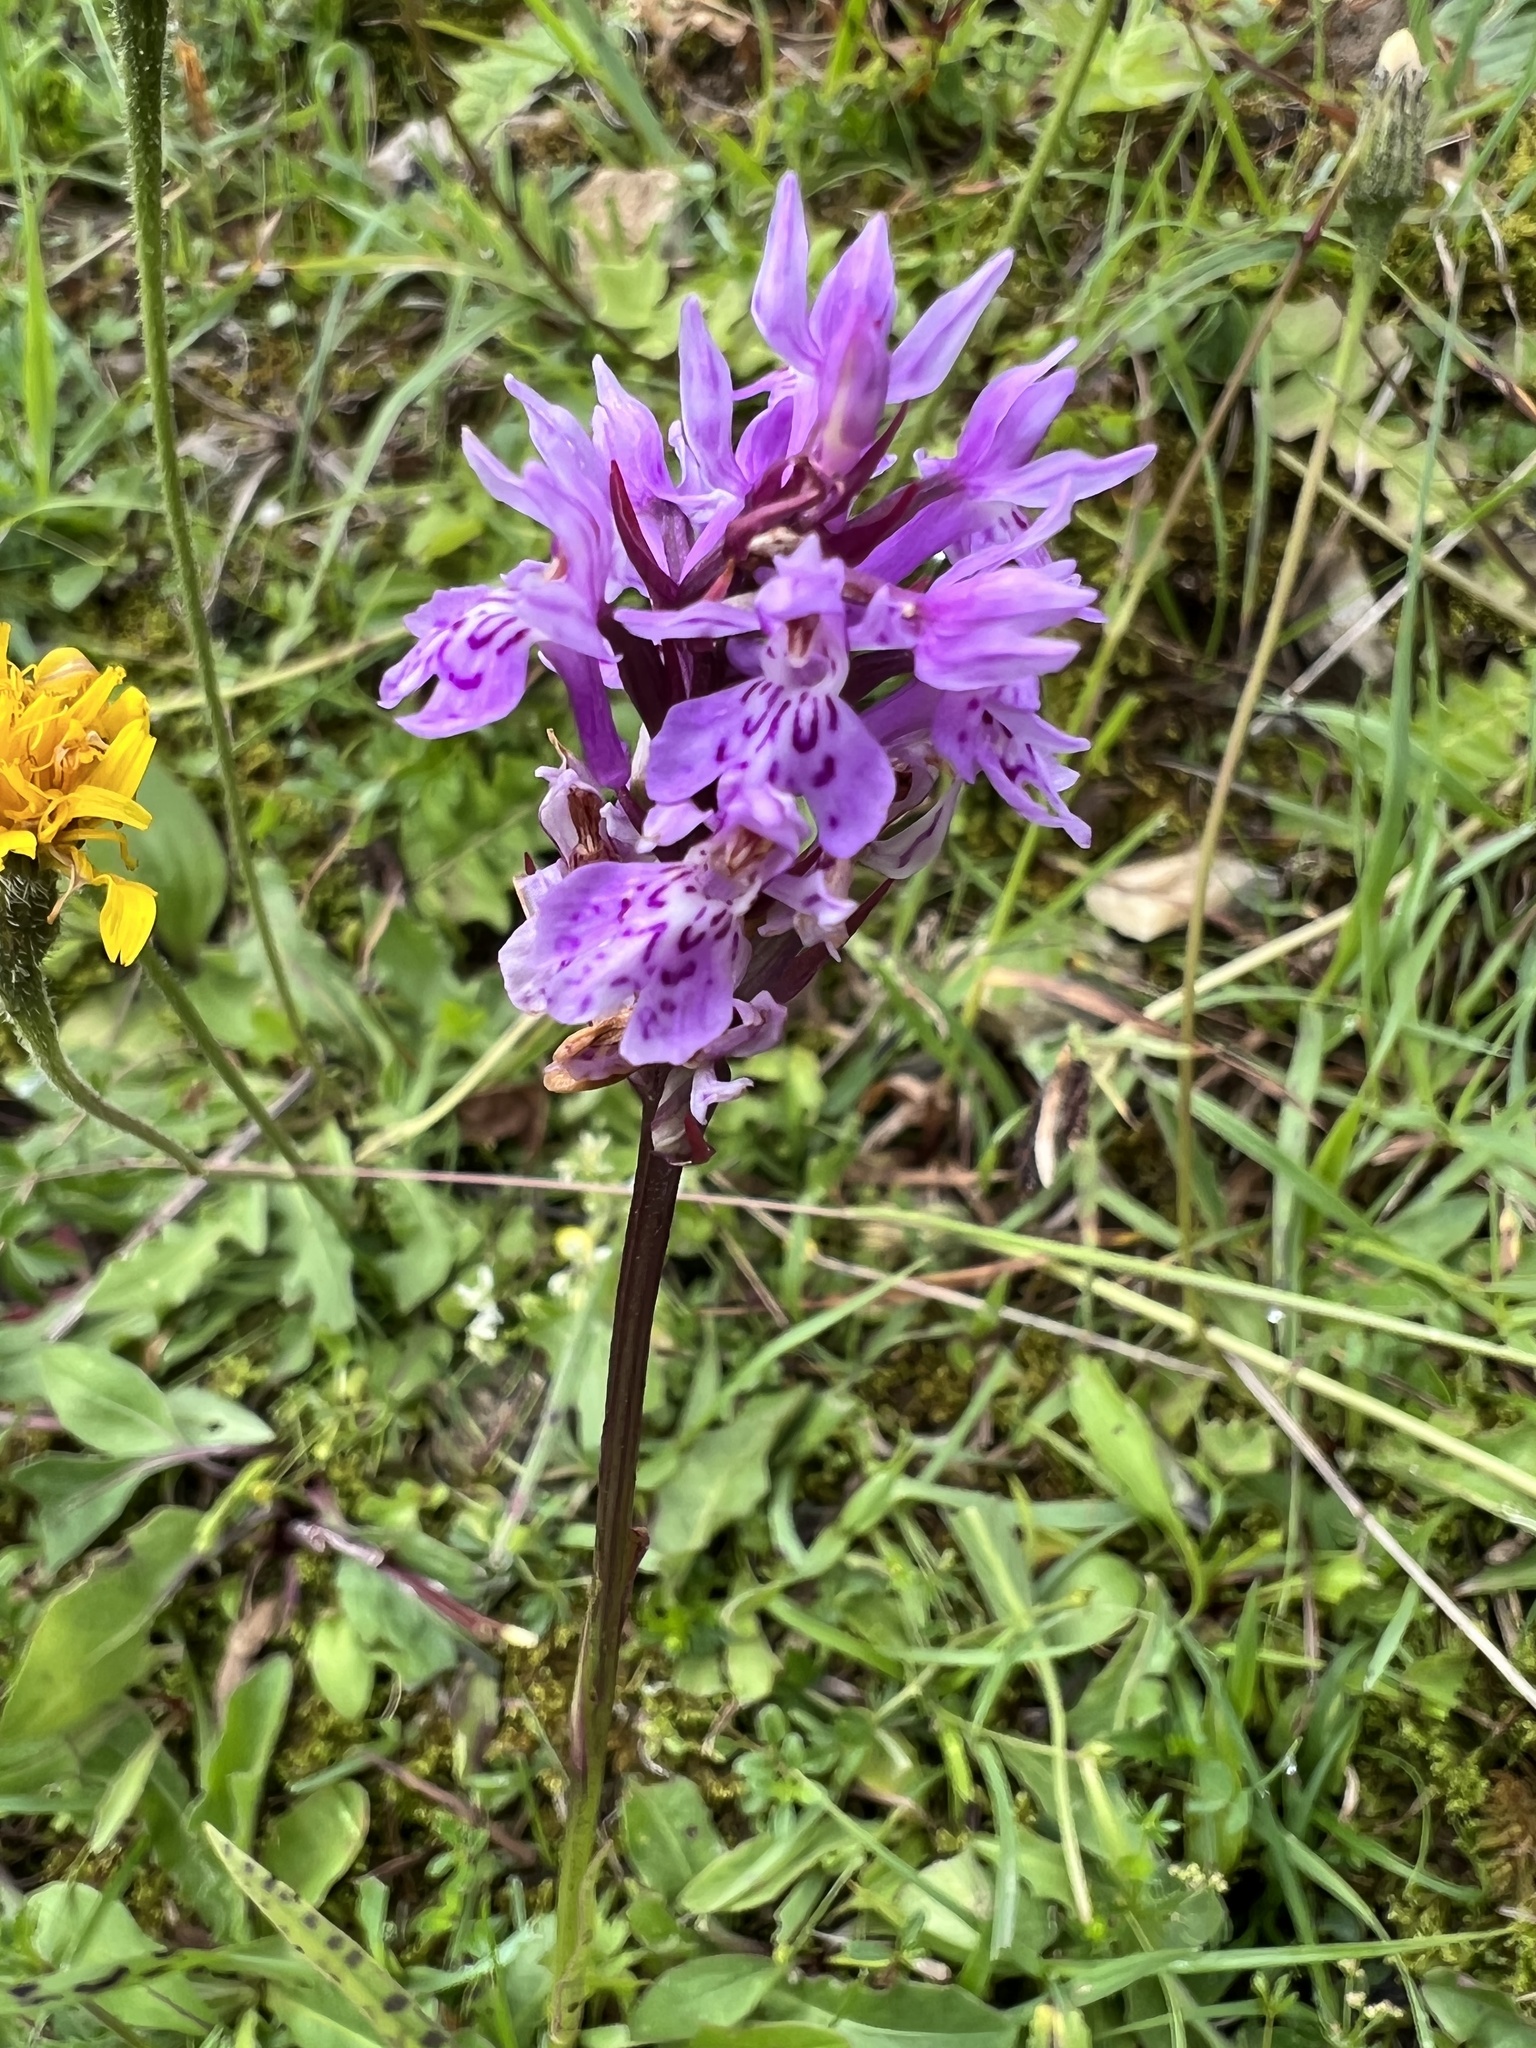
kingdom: Plantae
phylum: Tracheophyta
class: Liliopsida
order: Asparagales
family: Orchidaceae
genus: Dactylorhiza
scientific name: Dactylorhiza maculata
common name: Heath spotted-orchid
